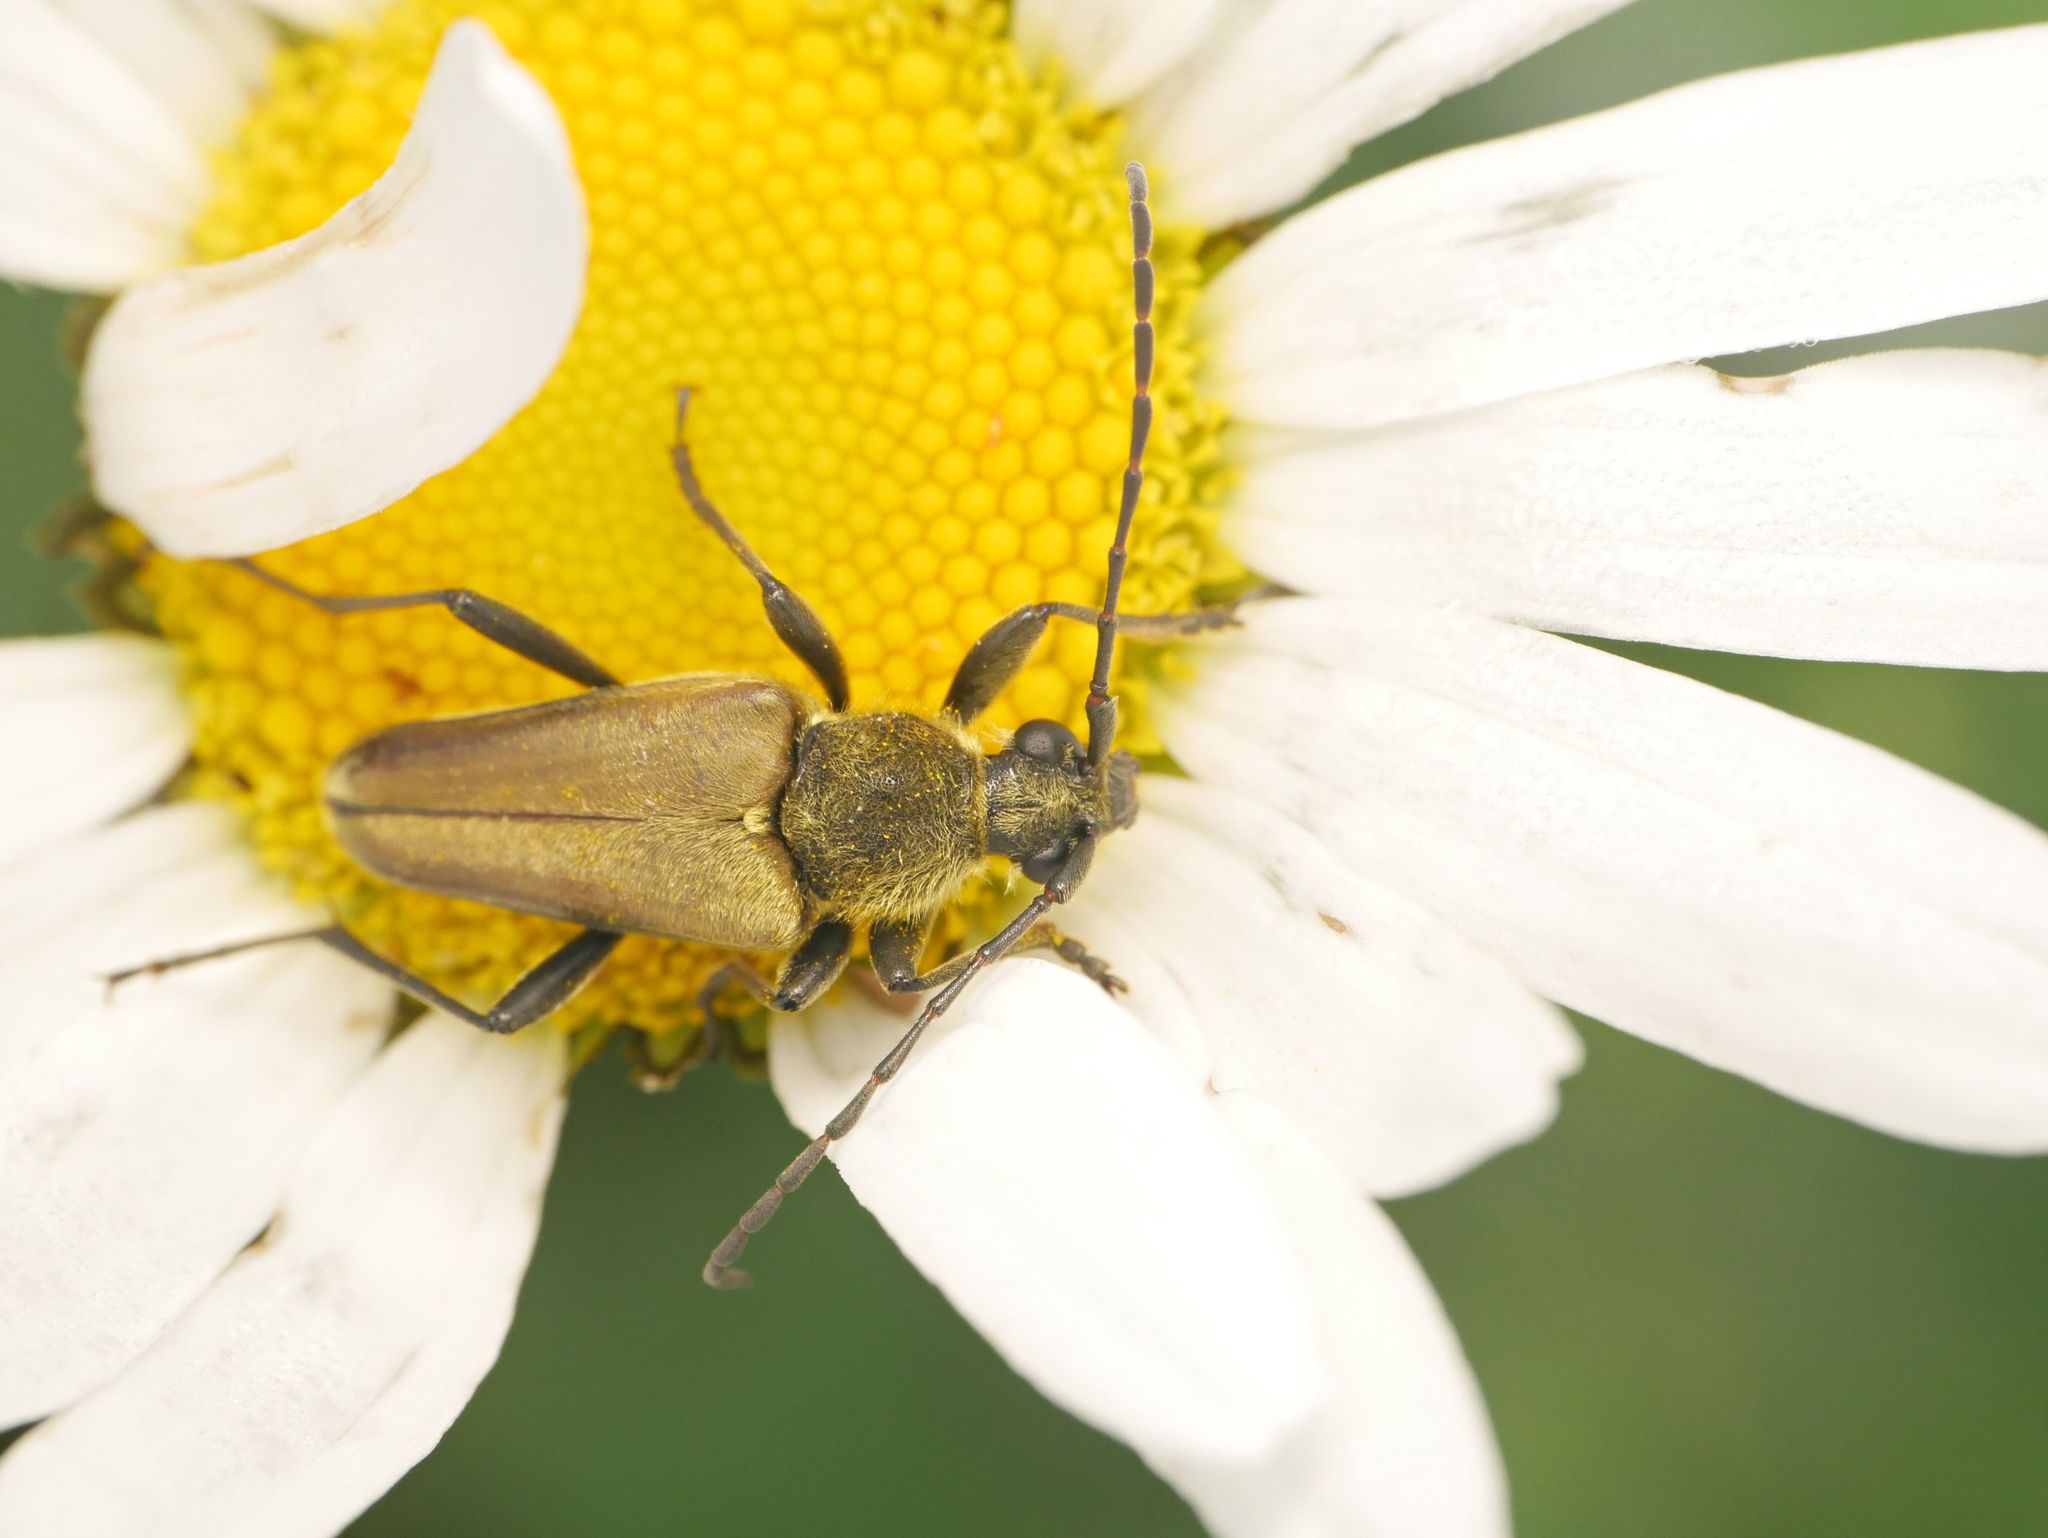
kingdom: Animalia
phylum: Arthropoda
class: Insecta
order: Coleoptera
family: Cerambycidae
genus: Cosmosalia
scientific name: Cosmosalia chrysocoma
